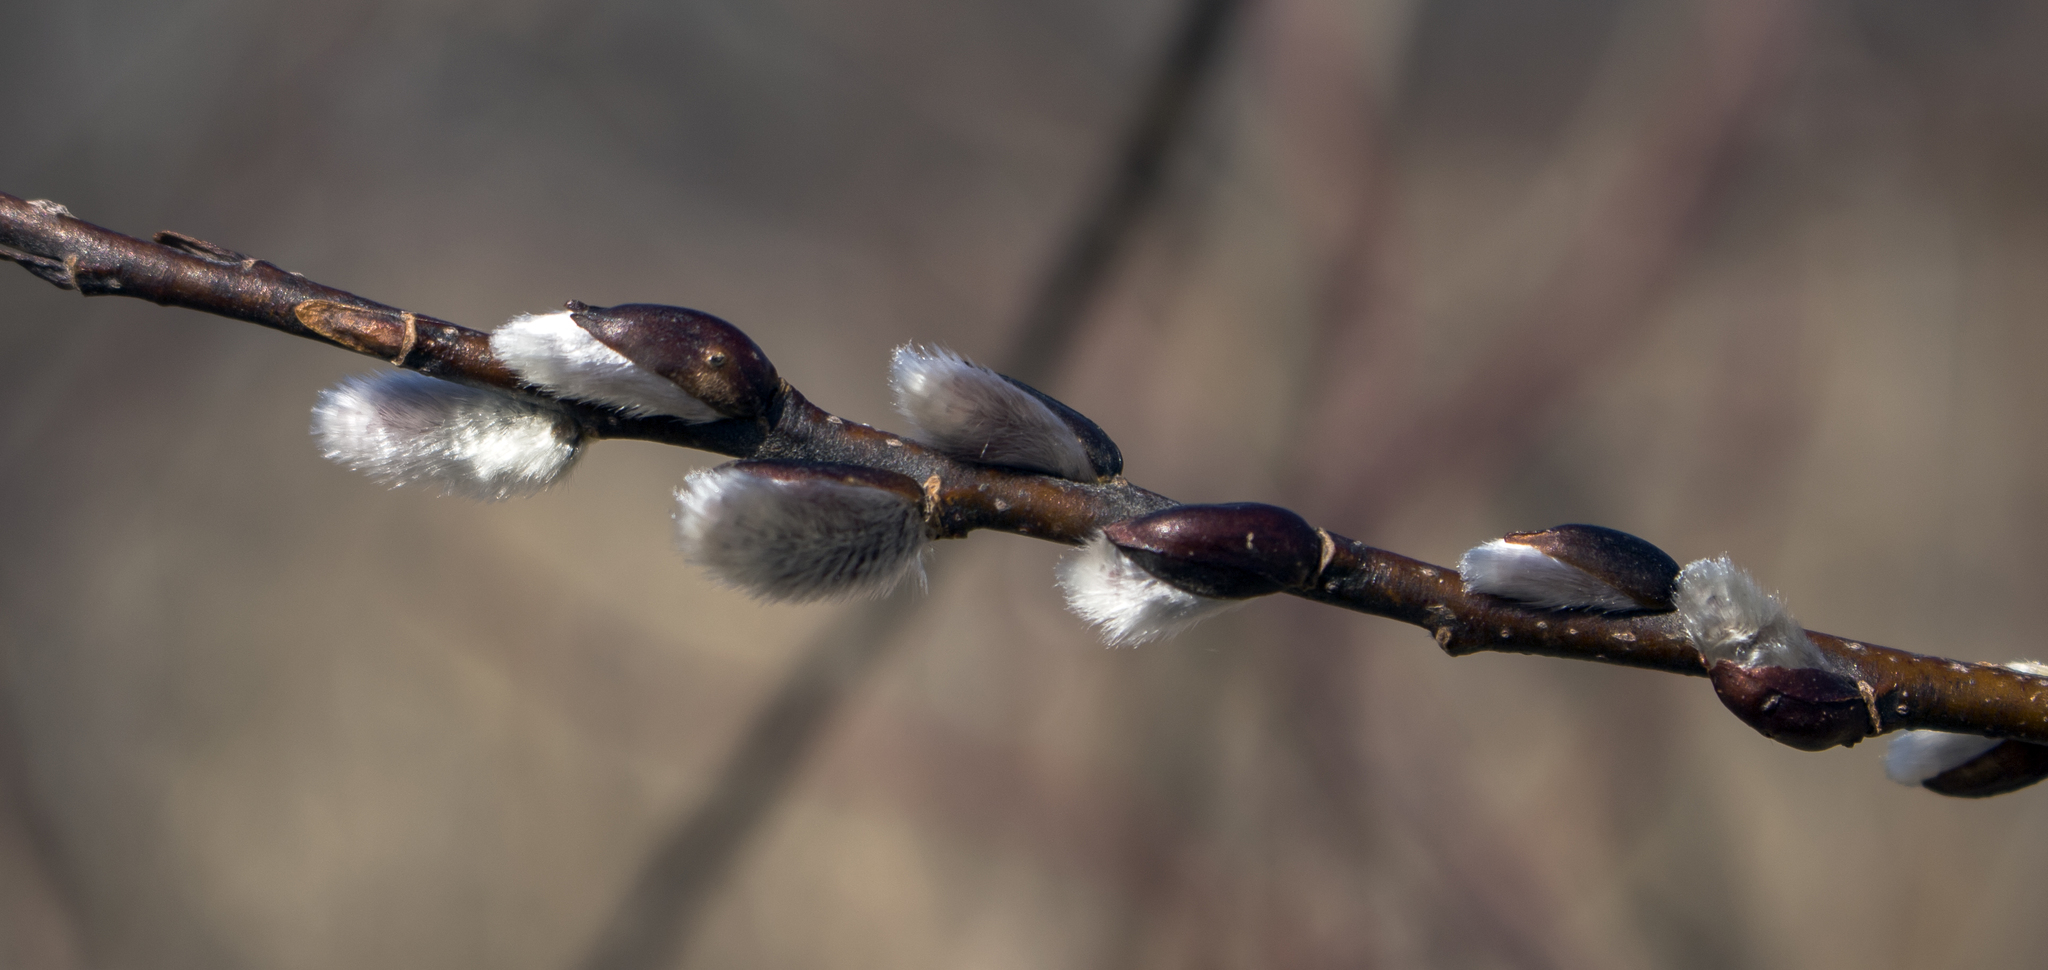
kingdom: Plantae
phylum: Tracheophyta
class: Magnoliopsida
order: Malpighiales
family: Salicaceae
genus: Salix
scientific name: Salix discolor
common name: Glaucous willow
